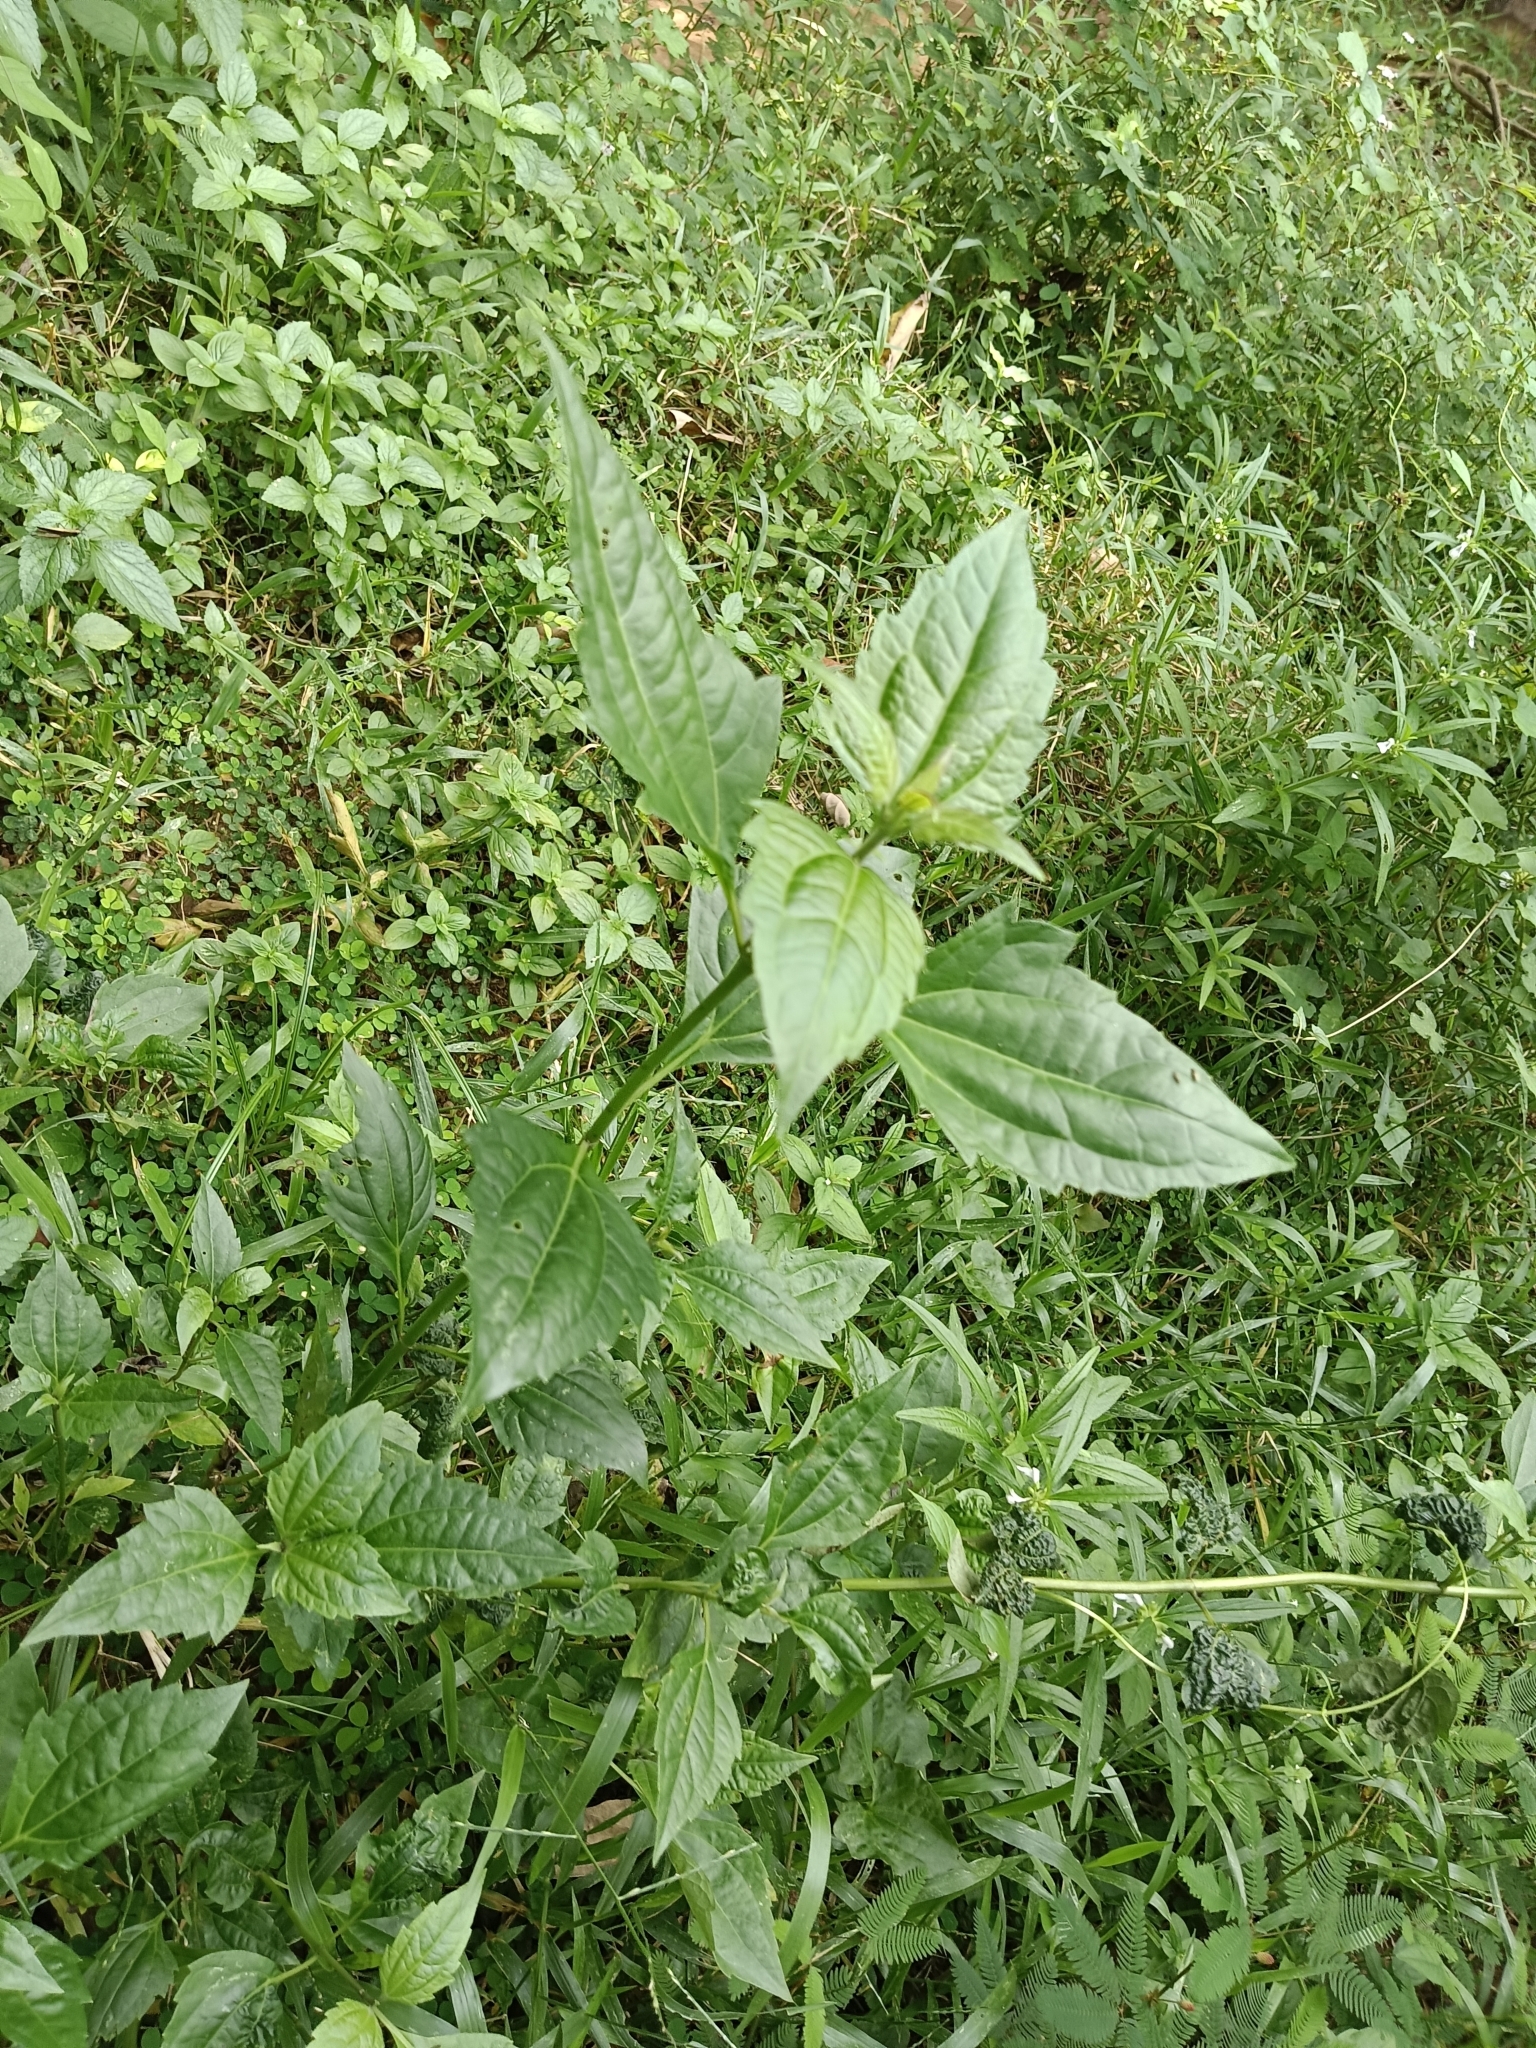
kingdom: Plantae
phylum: Tracheophyta
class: Magnoliopsida
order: Asterales
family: Asteraceae
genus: Chromolaena
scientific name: Chromolaena odorata
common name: Siamweed
